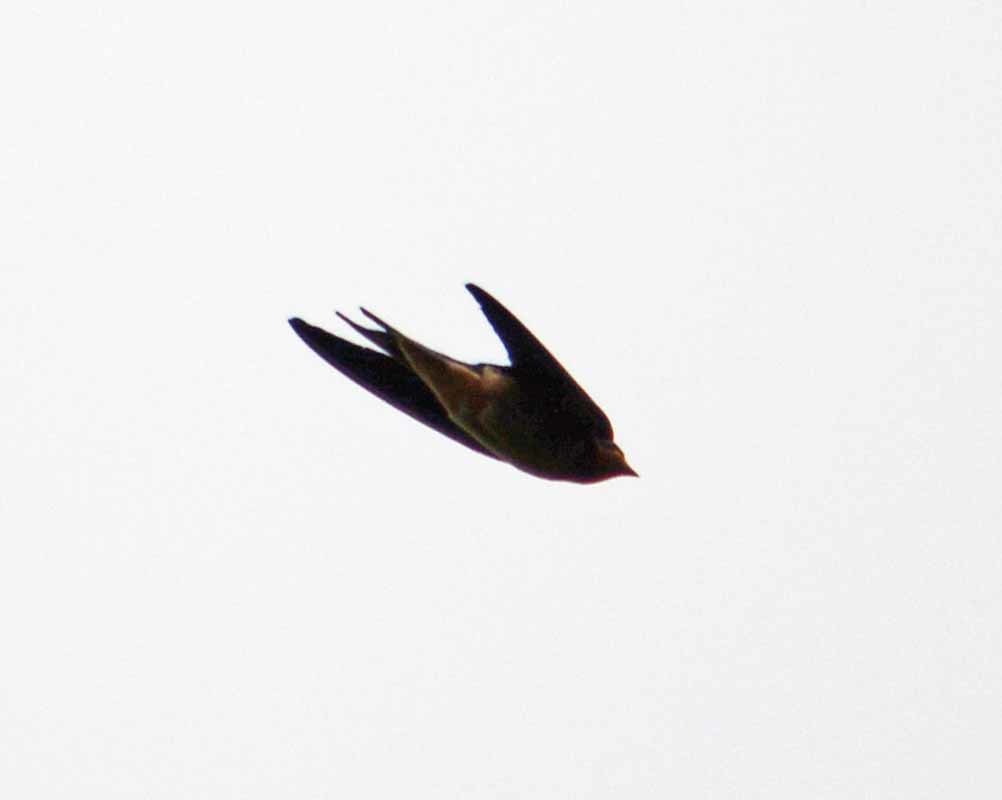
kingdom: Animalia
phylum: Chordata
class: Aves
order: Passeriformes
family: Hirundinidae
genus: Hirundo
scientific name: Hirundo rustica
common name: Barn swallow
